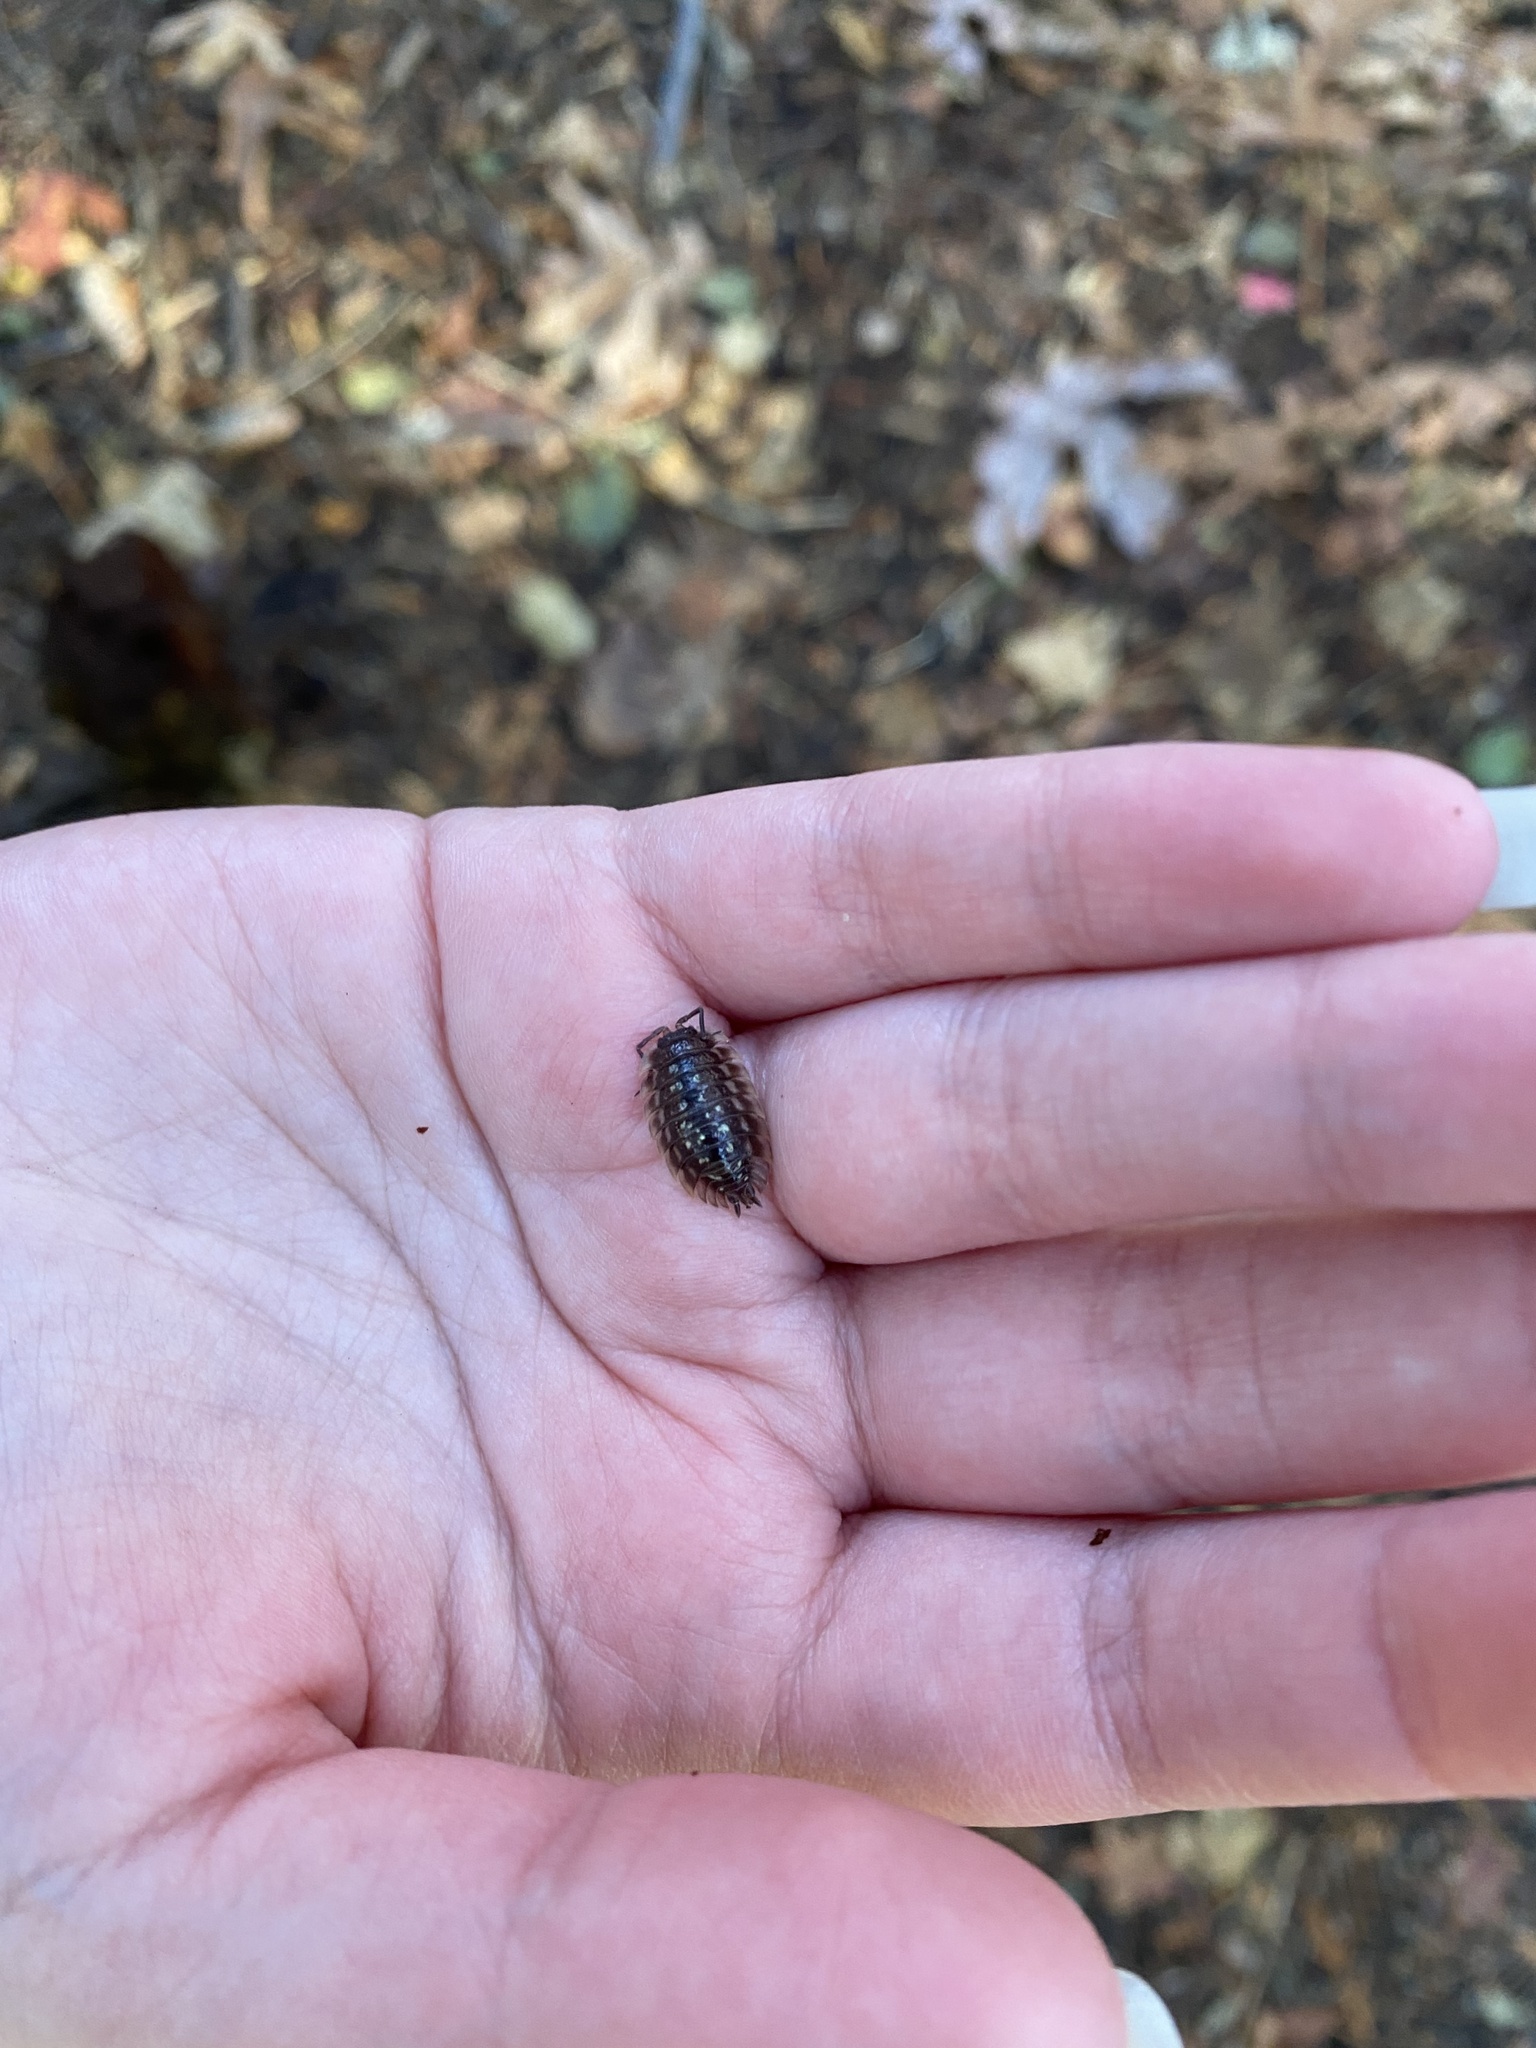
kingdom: Animalia
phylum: Arthropoda
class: Malacostraca
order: Isopoda
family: Oniscidae
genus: Oniscus
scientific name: Oniscus asellus
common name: Common shiny woodlouse
